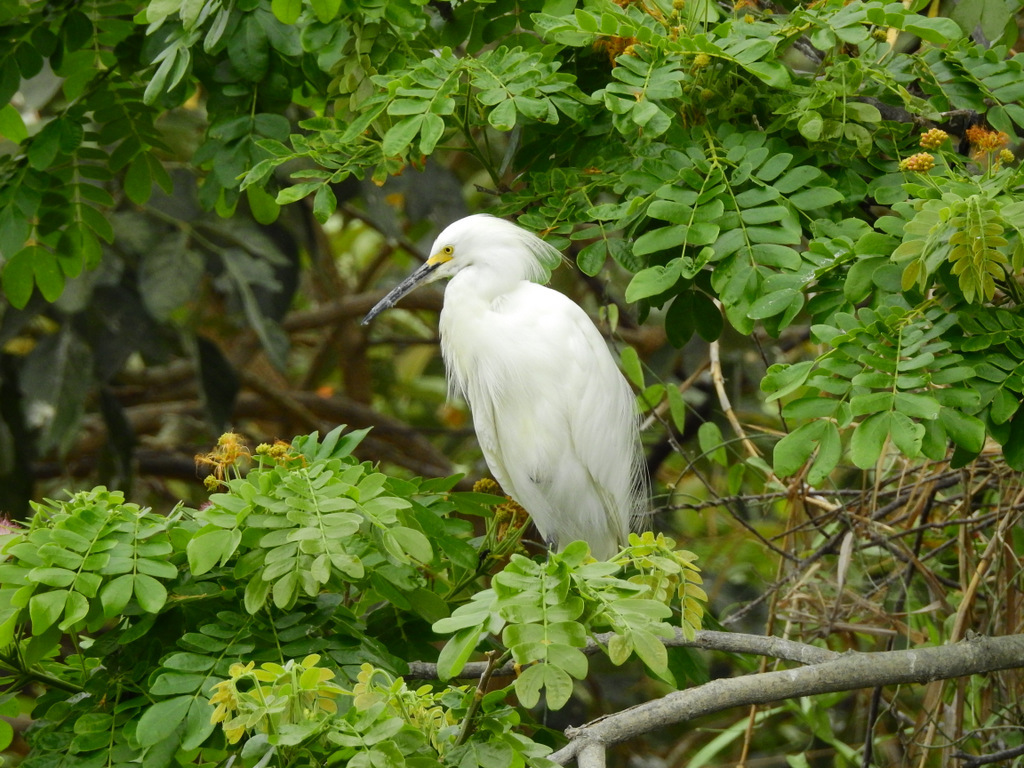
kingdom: Animalia
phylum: Chordata
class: Aves
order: Pelecaniformes
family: Ardeidae
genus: Egretta
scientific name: Egretta thula
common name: Snowy egret
